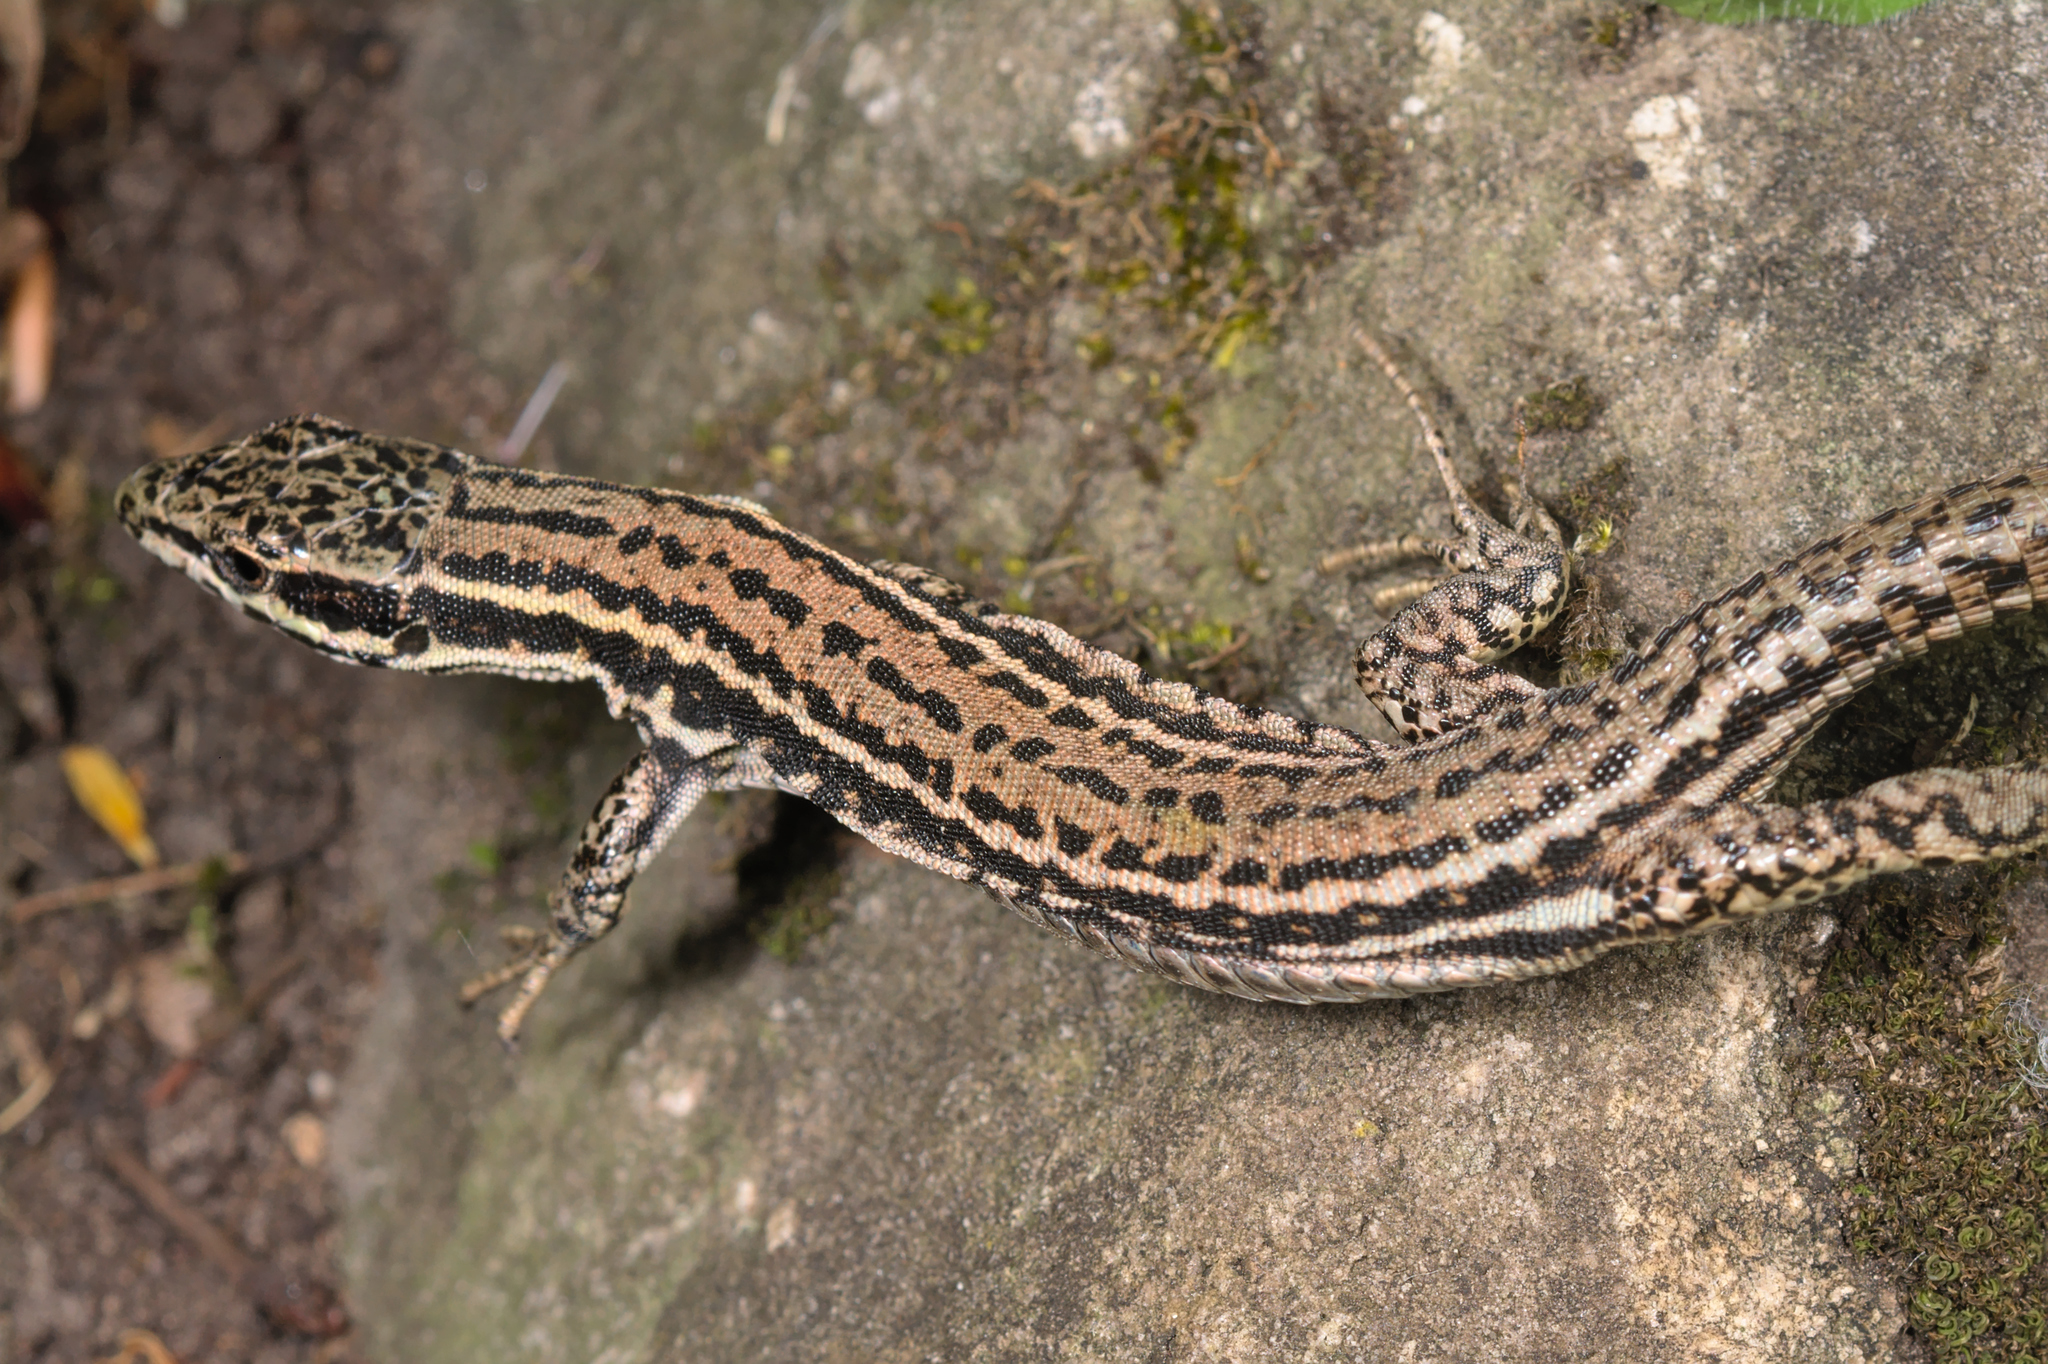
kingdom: Animalia
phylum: Chordata
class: Squamata
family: Lacertidae
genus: Podarcis
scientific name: Podarcis muralis
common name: Common wall lizard
